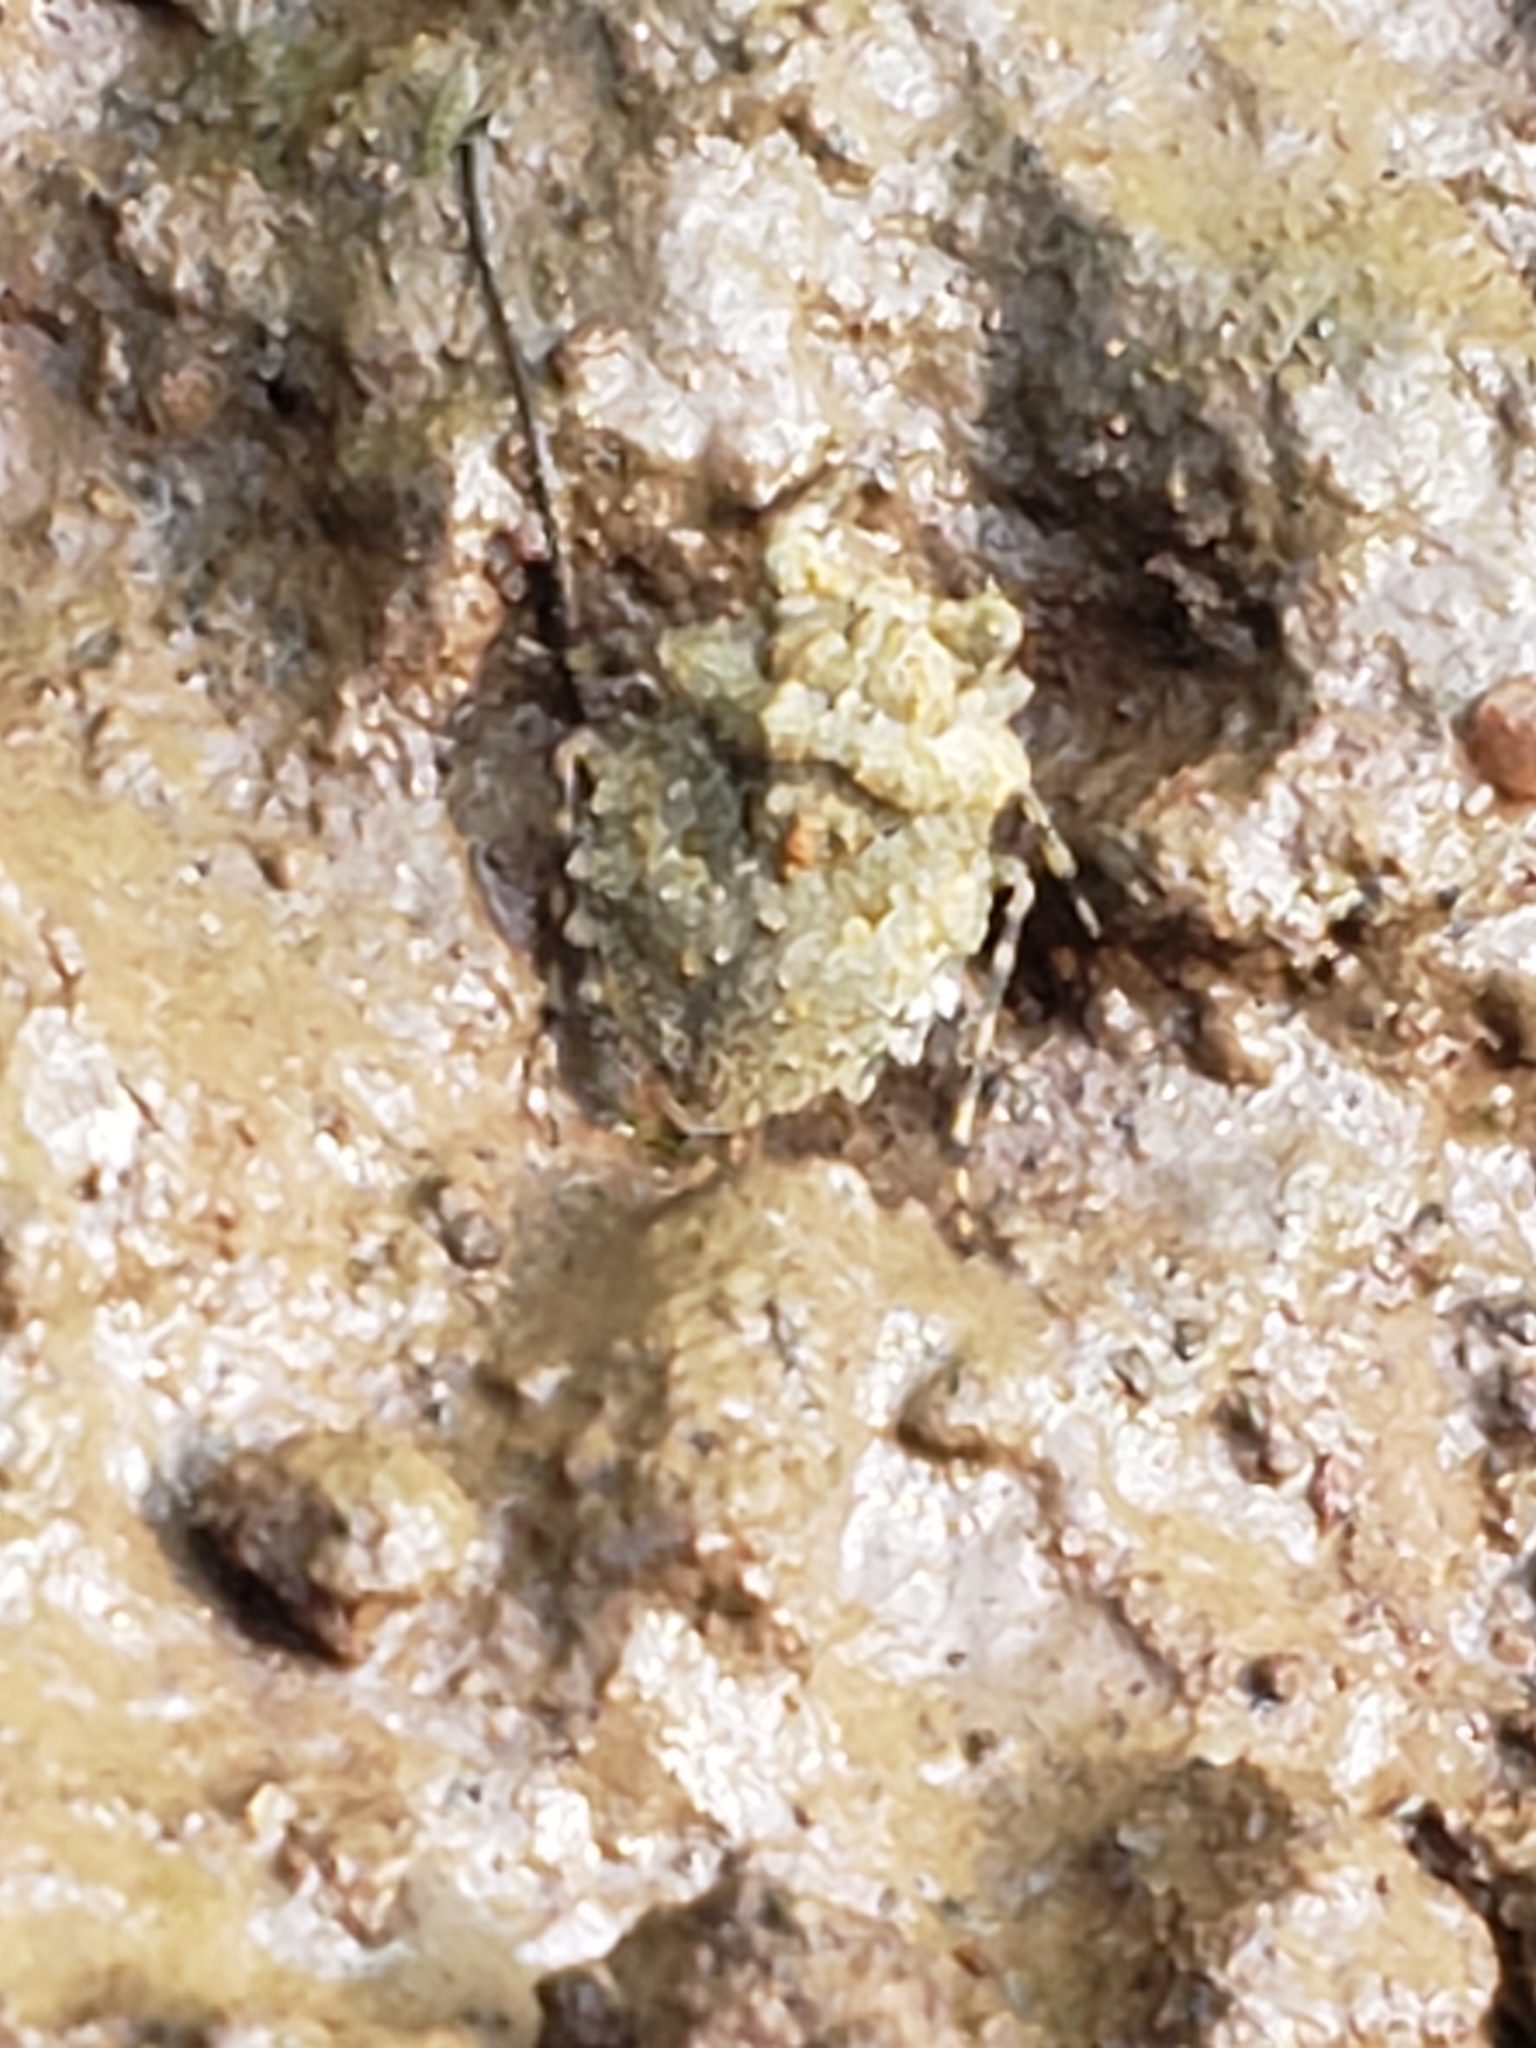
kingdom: Animalia
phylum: Arthropoda
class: Insecta
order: Hemiptera
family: Gelastocoridae
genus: Gelastocoris
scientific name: Gelastocoris oculatus
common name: Toad bug
